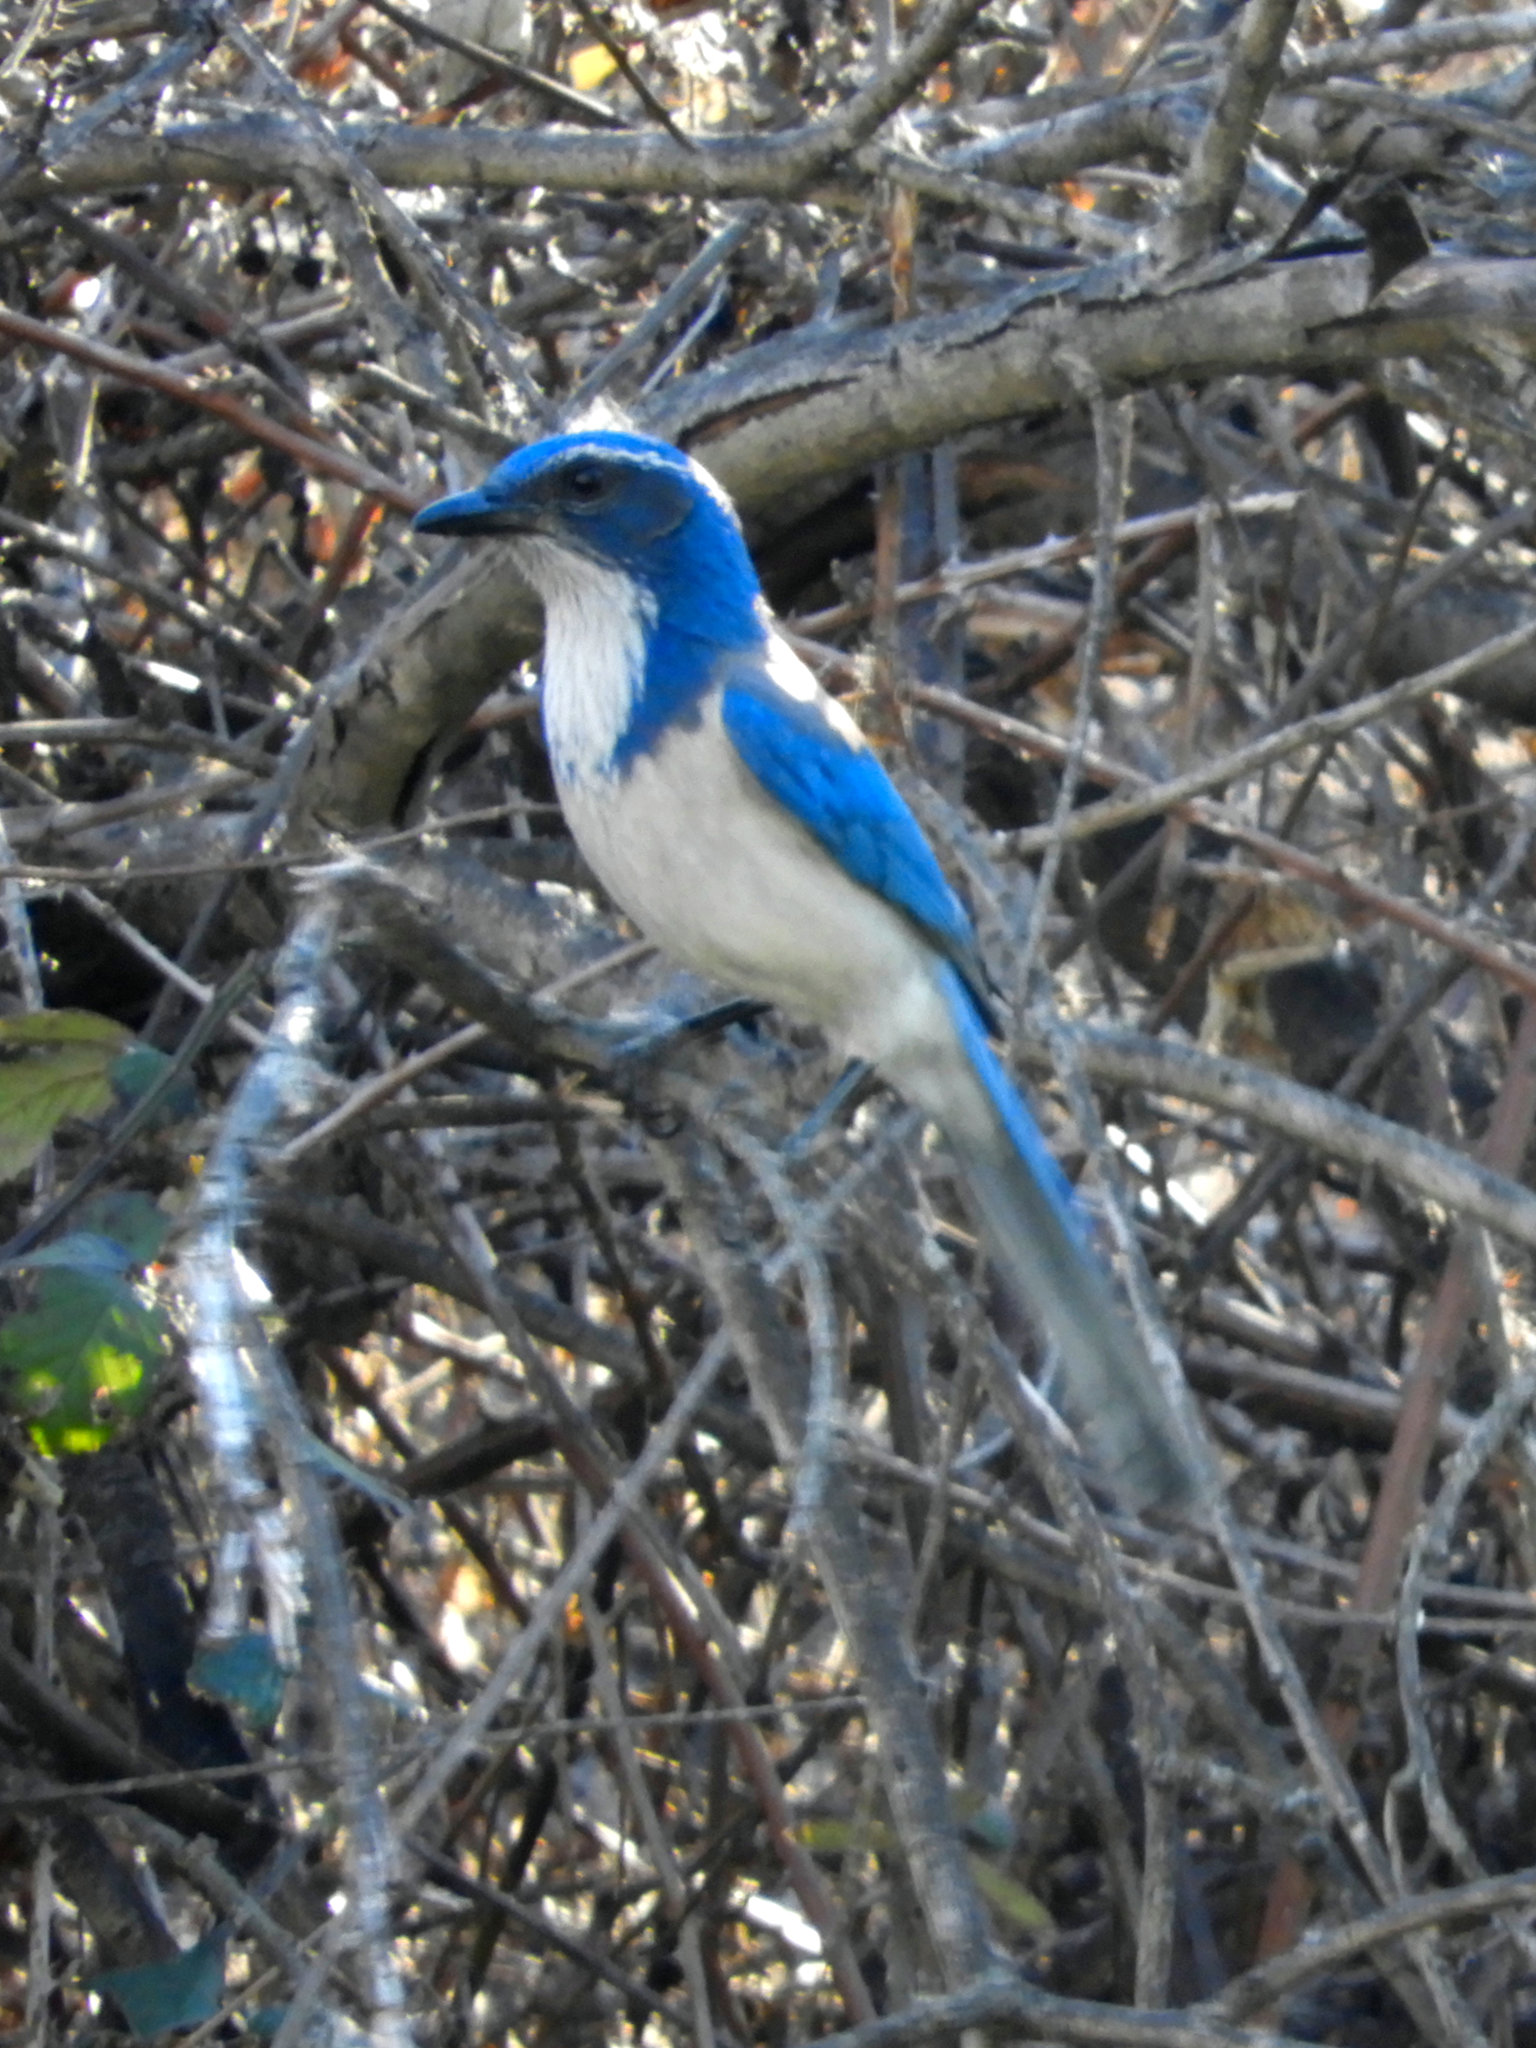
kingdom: Animalia
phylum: Chordata
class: Aves
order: Passeriformes
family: Corvidae
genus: Aphelocoma
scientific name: Aphelocoma californica
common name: California scrub-jay
